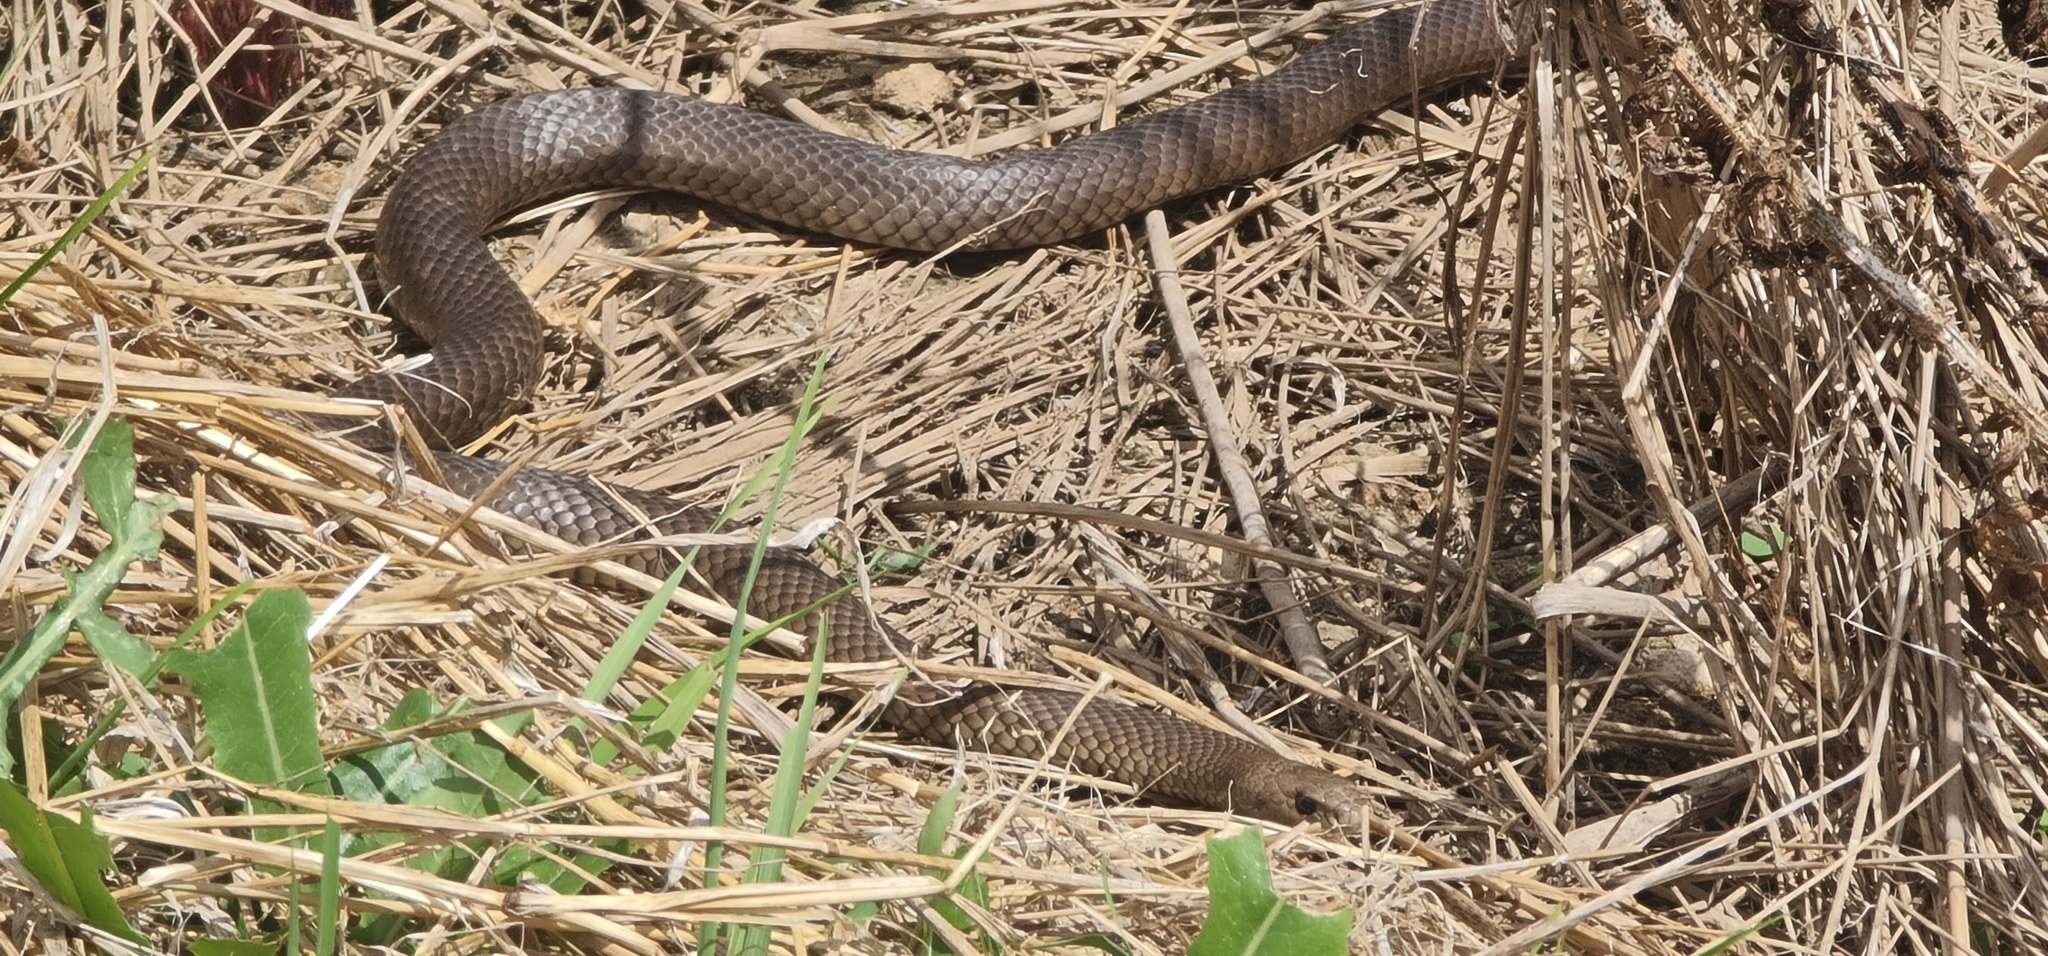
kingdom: Animalia
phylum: Chordata
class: Squamata
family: Elapidae
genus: Pseudonaja
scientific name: Pseudonaja textilis
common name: Eastern brown snake
